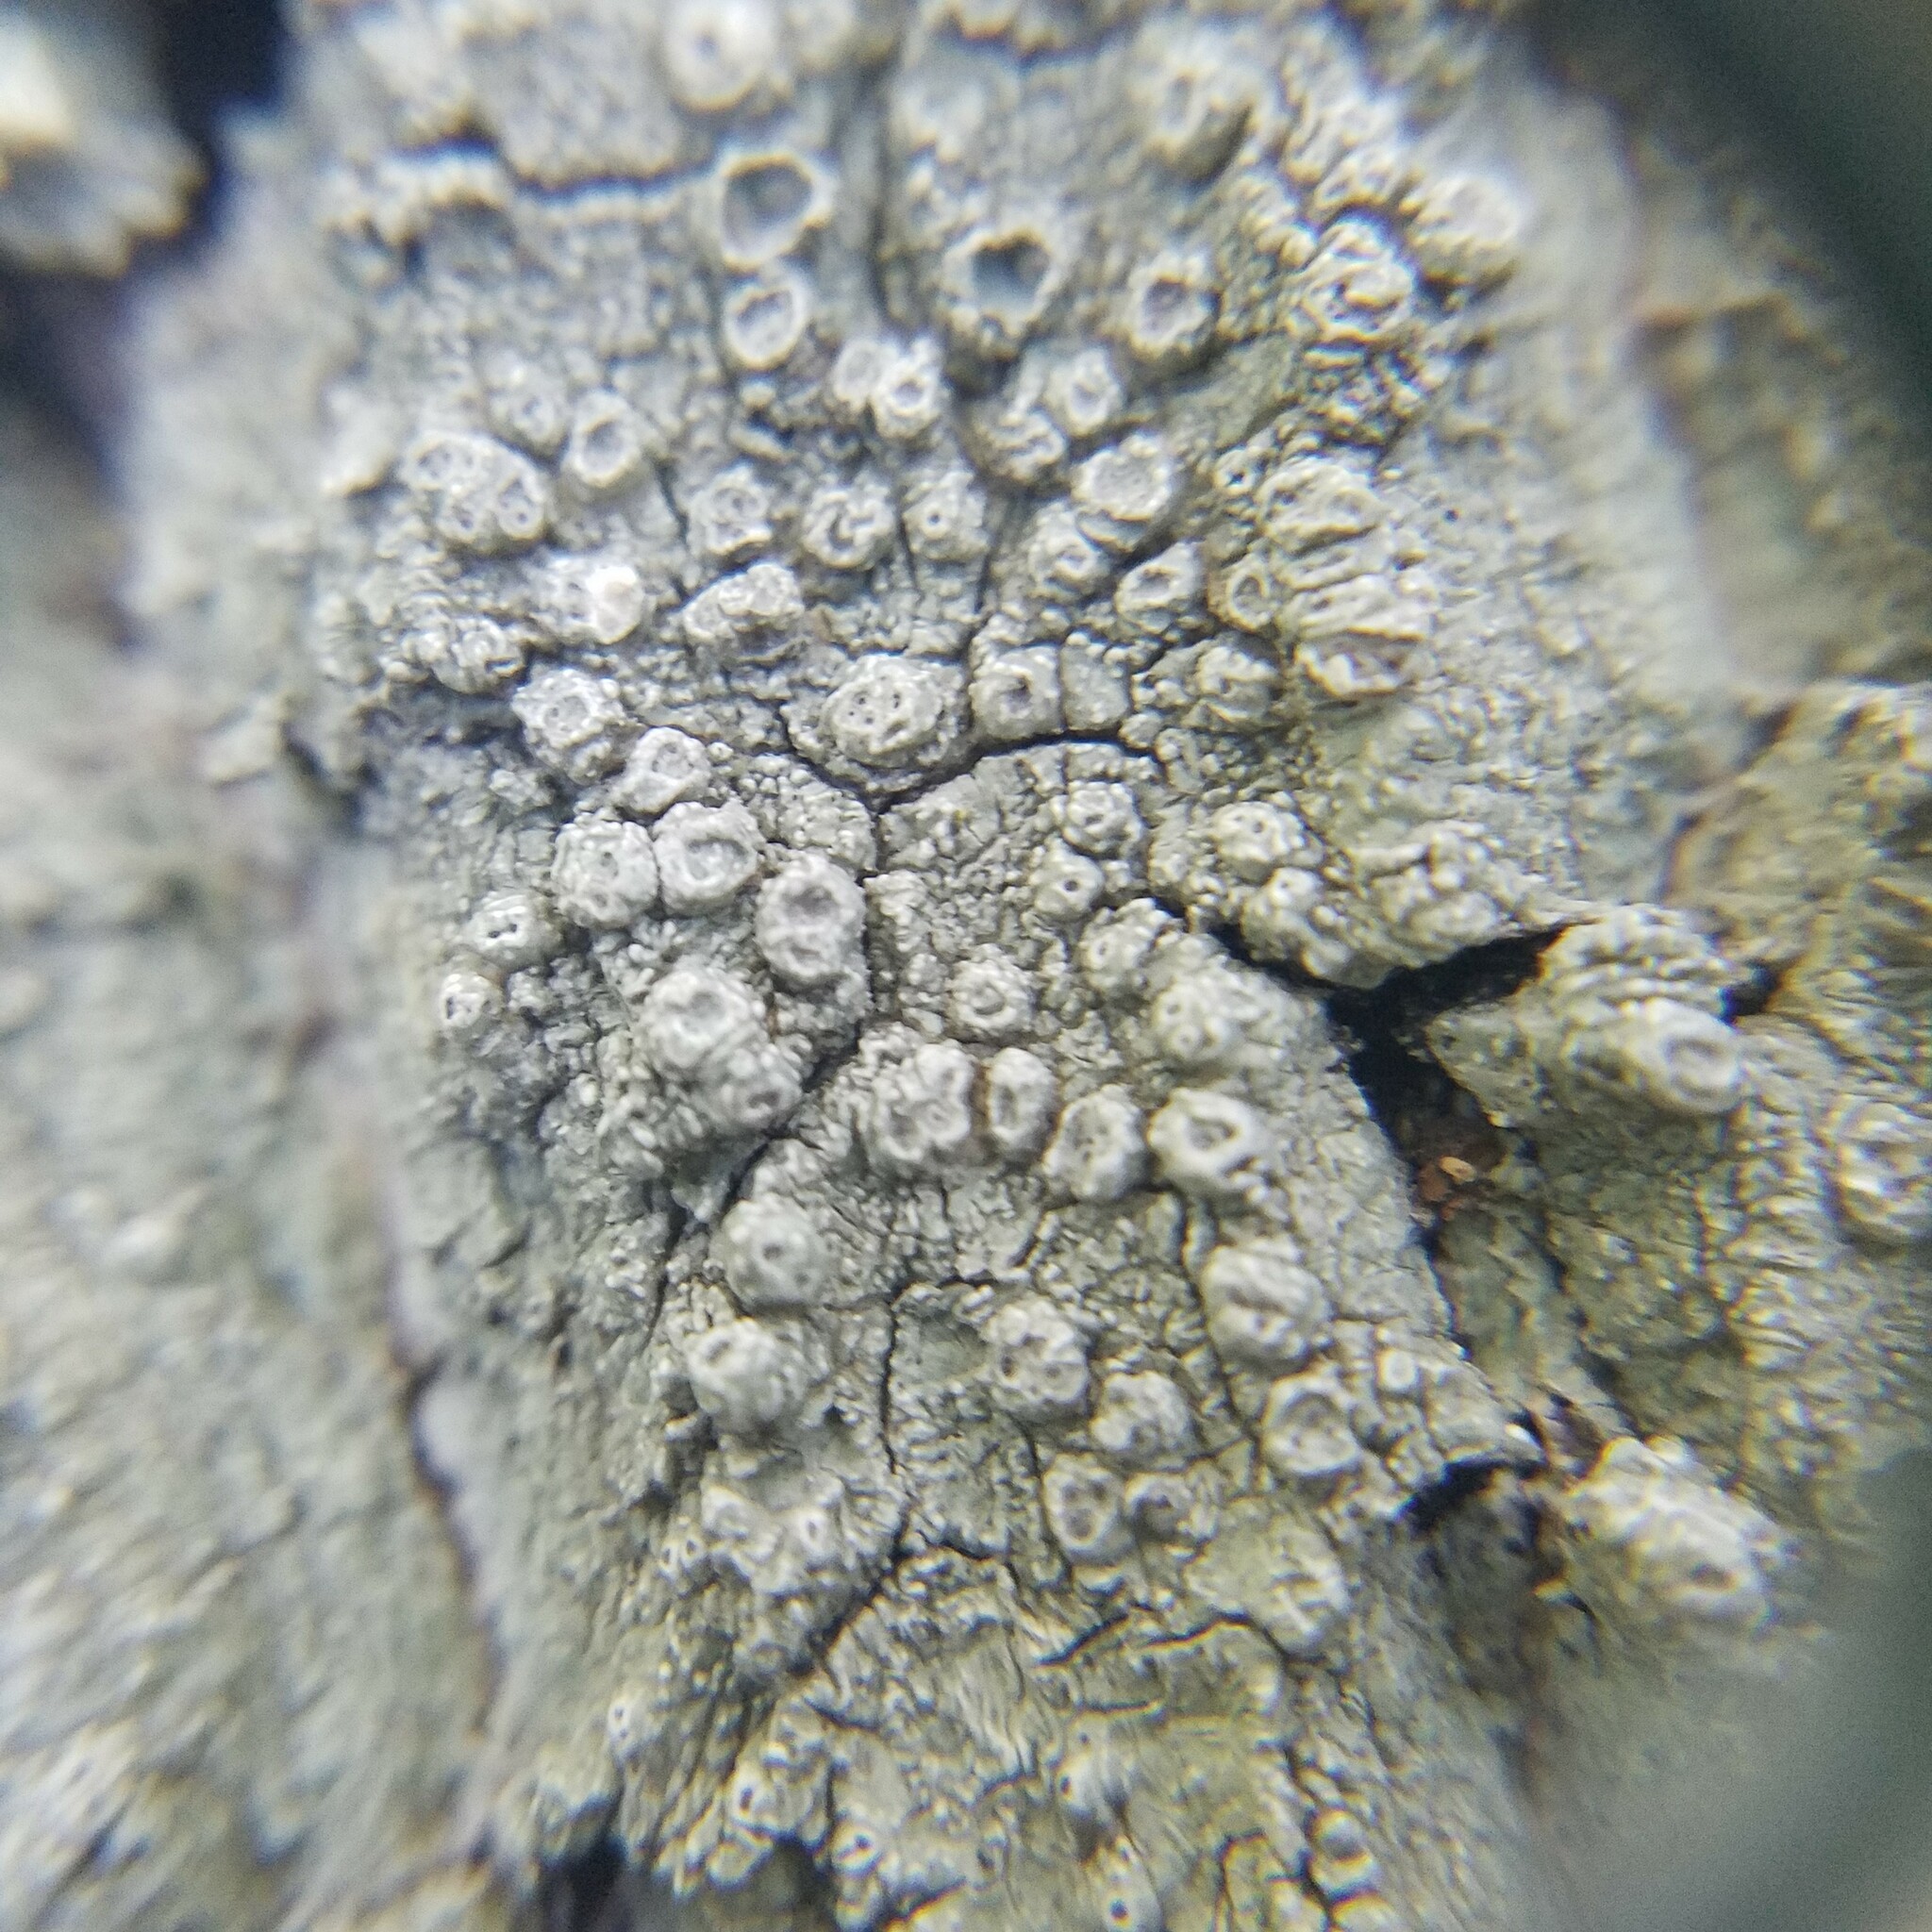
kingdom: Fungi
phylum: Ascomycota
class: Lecanoromycetes
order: Pertusariales
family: Pertusariaceae
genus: Pertusaria
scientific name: Pertusaria propinqua
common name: False flasks
